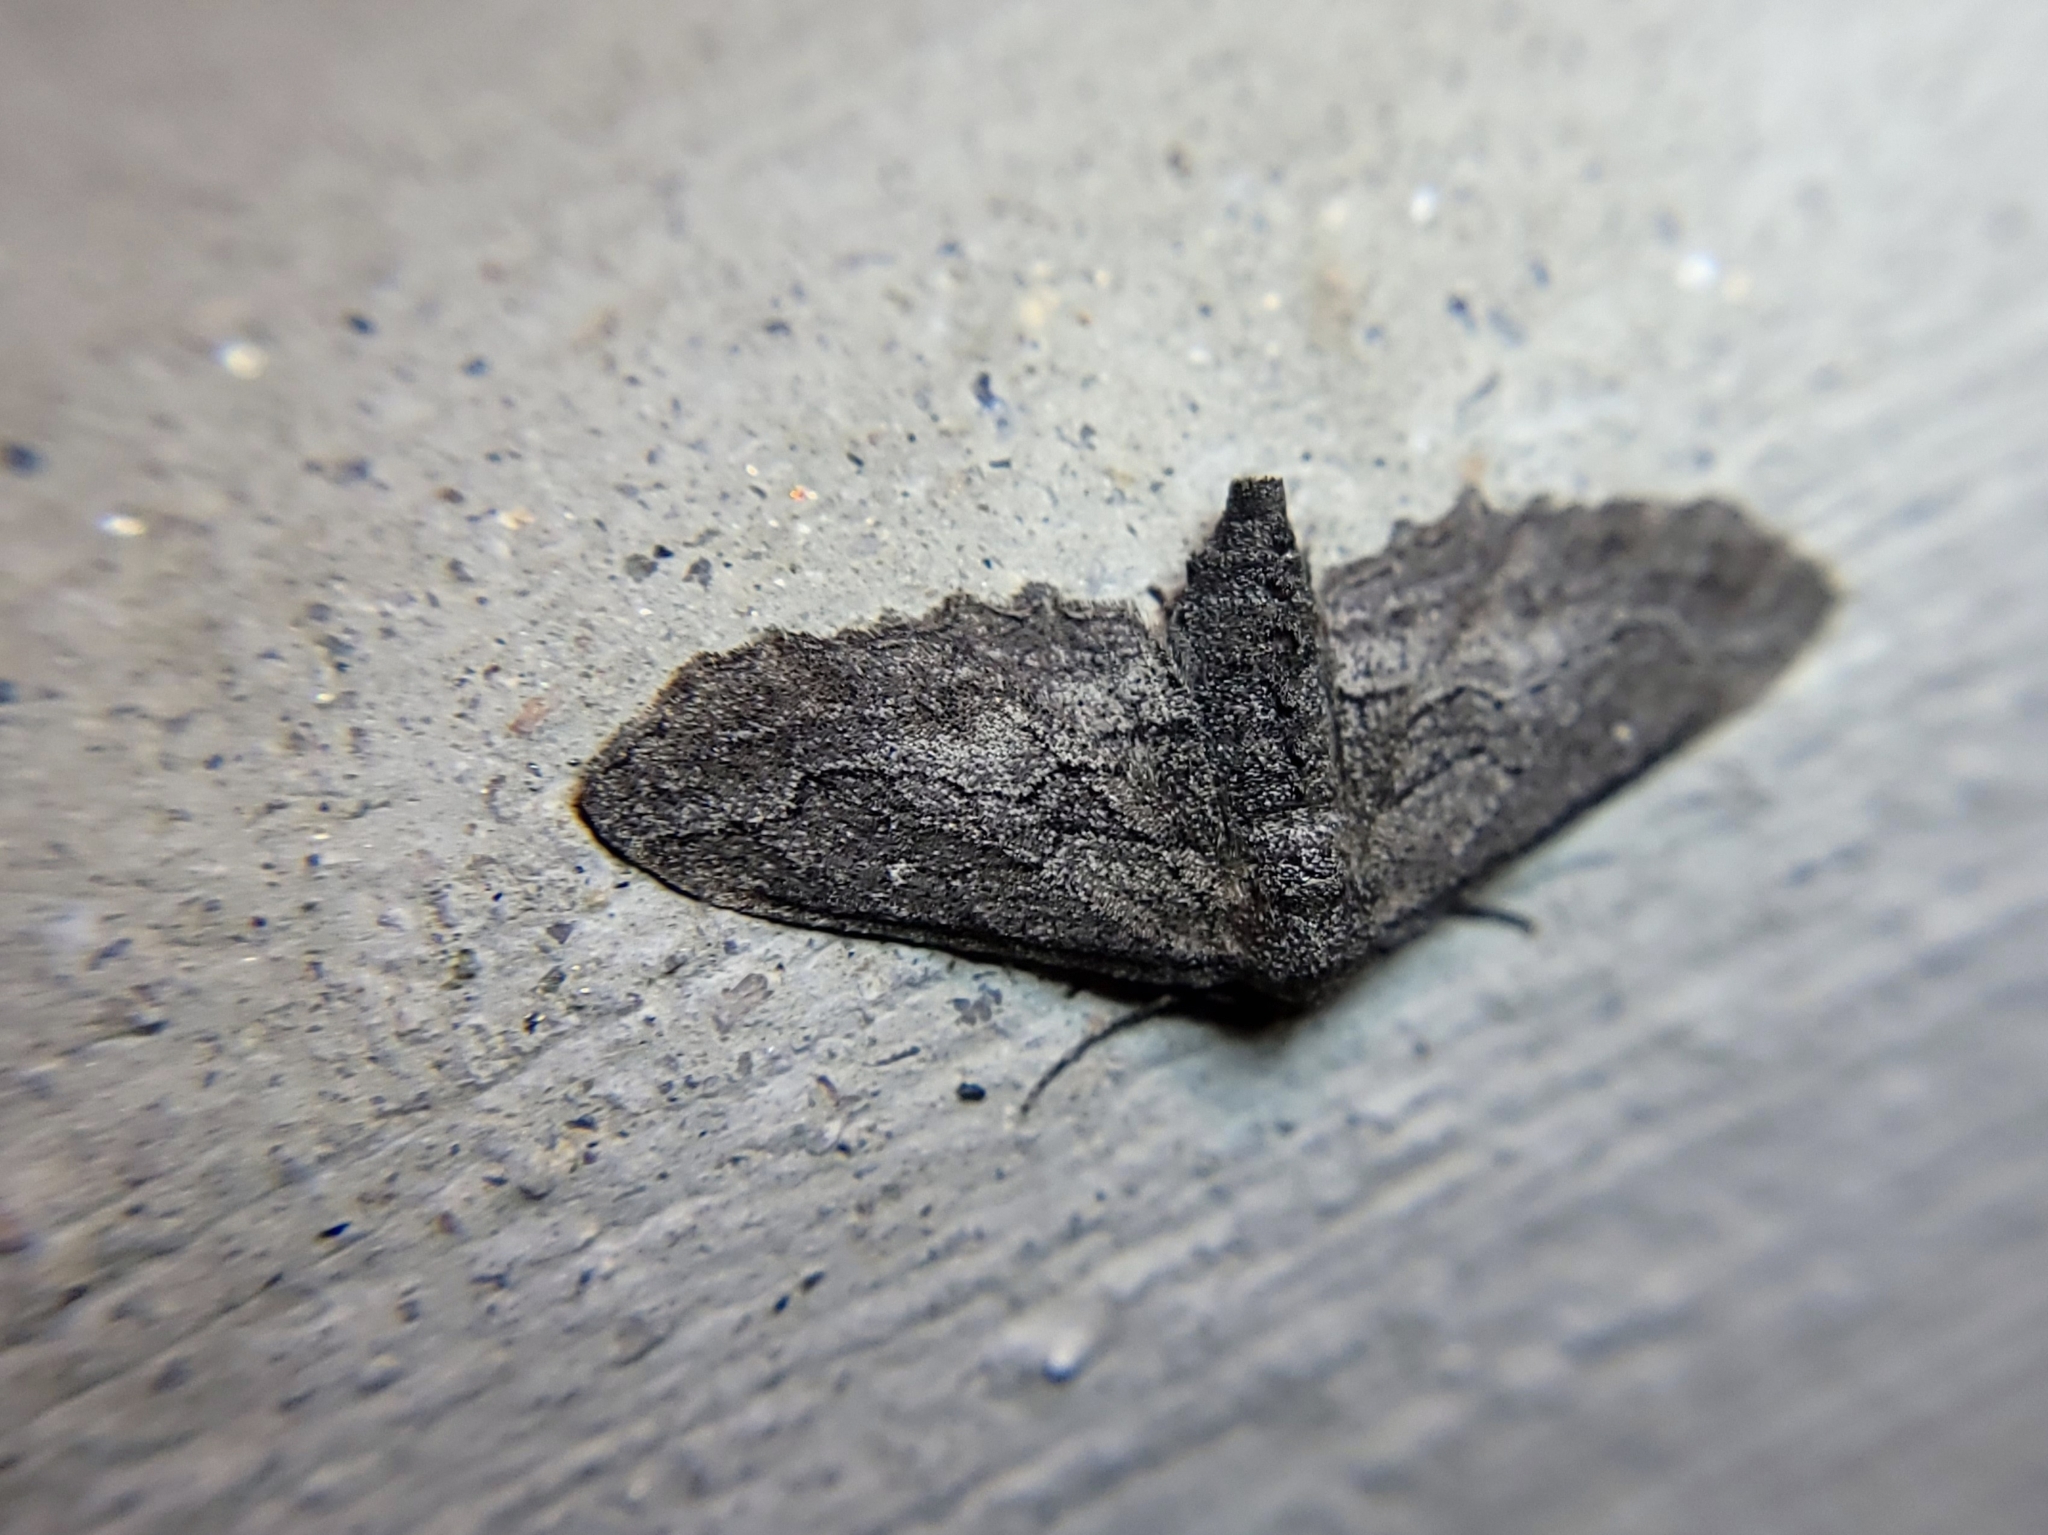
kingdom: Animalia
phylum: Arthropoda
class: Insecta
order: Lepidoptera
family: Geometridae
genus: Aethaloida
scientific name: Aethaloida packardaria
